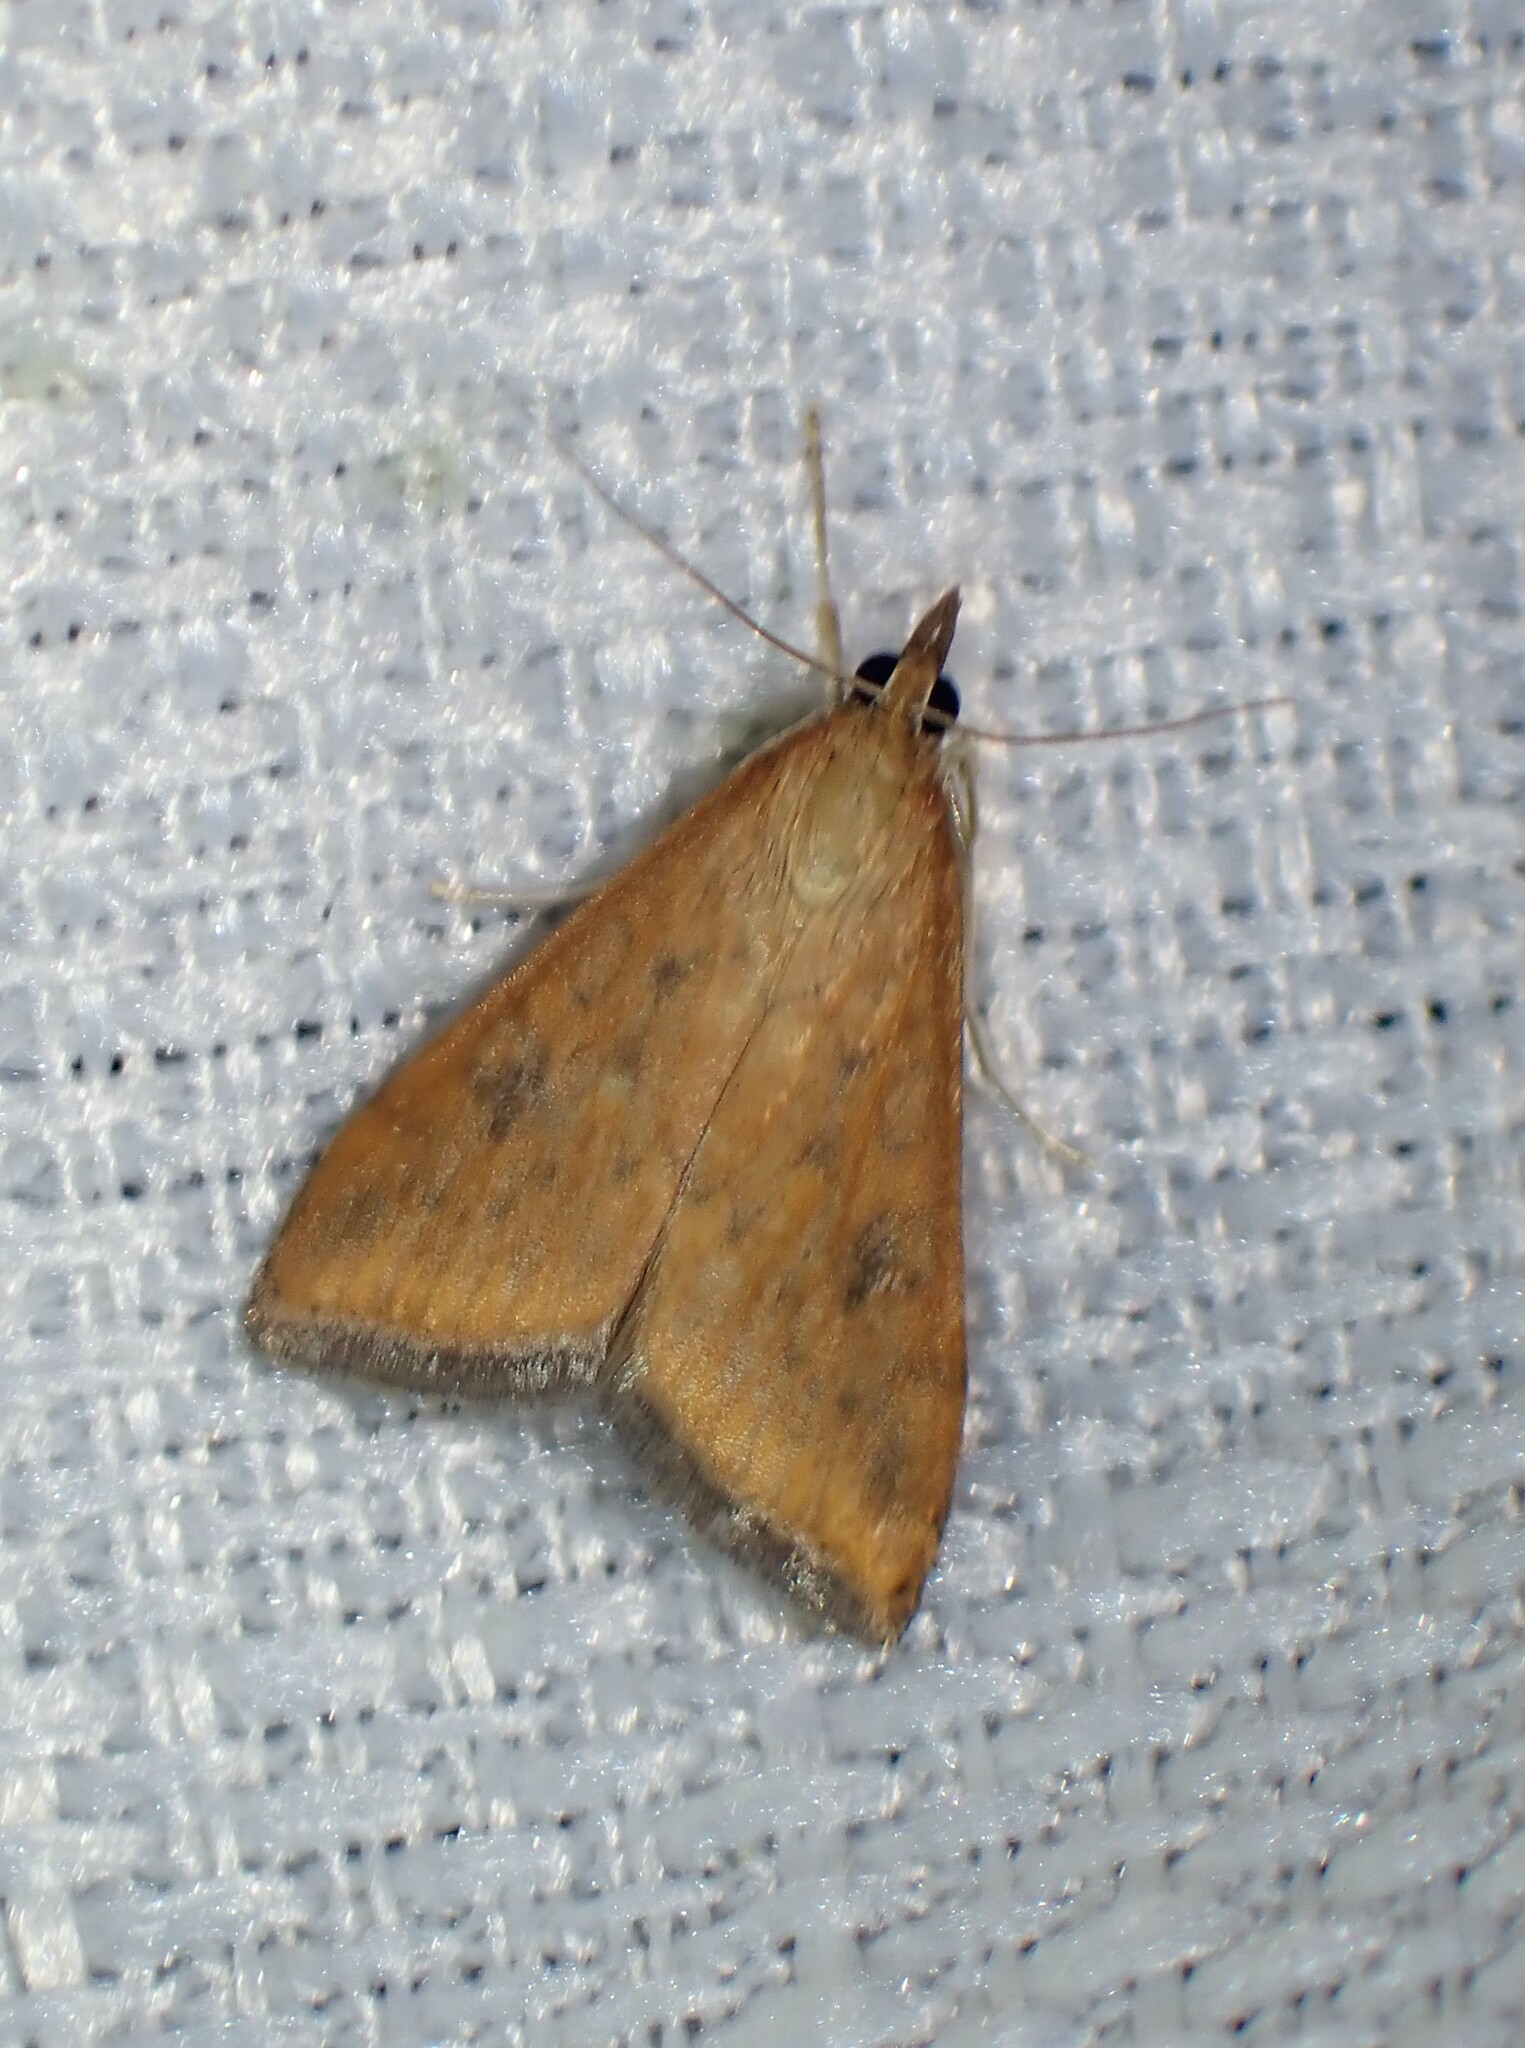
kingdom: Animalia
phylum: Arthropoda
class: Insecta
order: Lepidoptera
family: Crambidae
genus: Udea
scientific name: Udea ferrugalis
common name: Rusty dot
